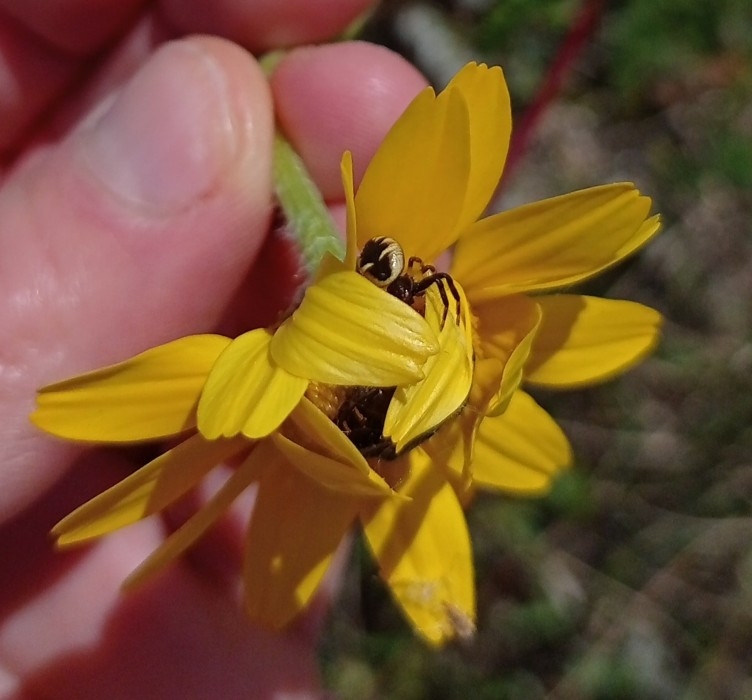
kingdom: Animalia
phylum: Arthropoda
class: Arachnida
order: Araneae
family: Thomisidae
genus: Synema
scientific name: Synema globosum
